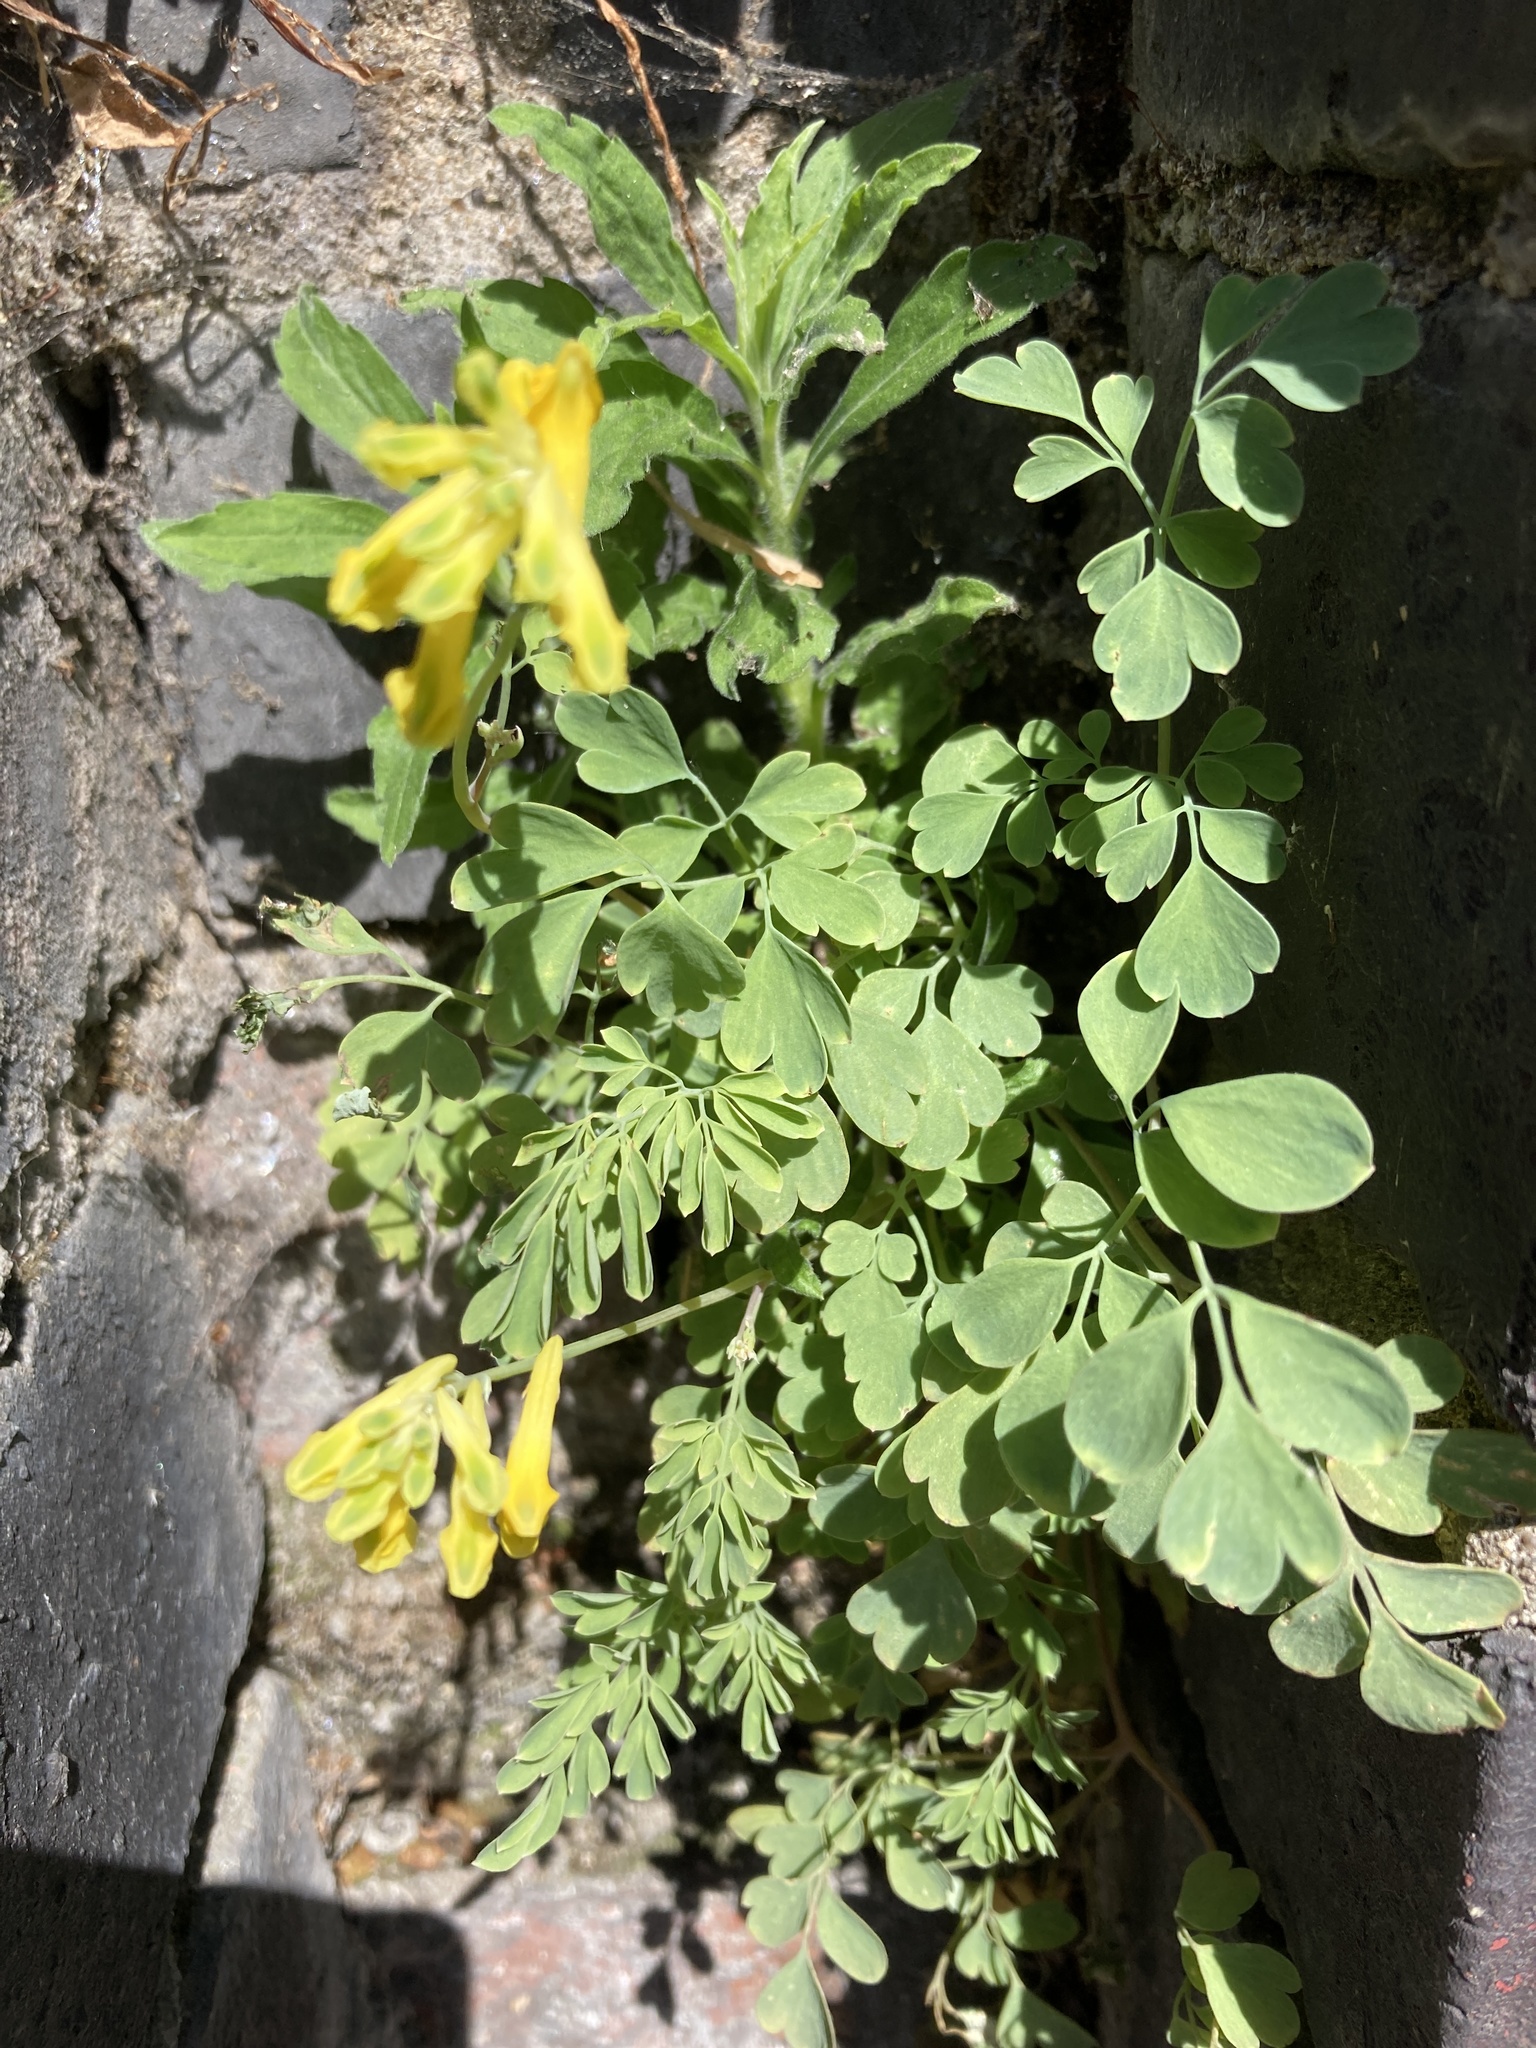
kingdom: Plantae
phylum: Tracheophyta
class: Magnoliopsida
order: Ranunculales
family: Papaveraceae
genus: Pseudofumaria
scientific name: Pseudofumaria lutea
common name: Yellow corydalis
